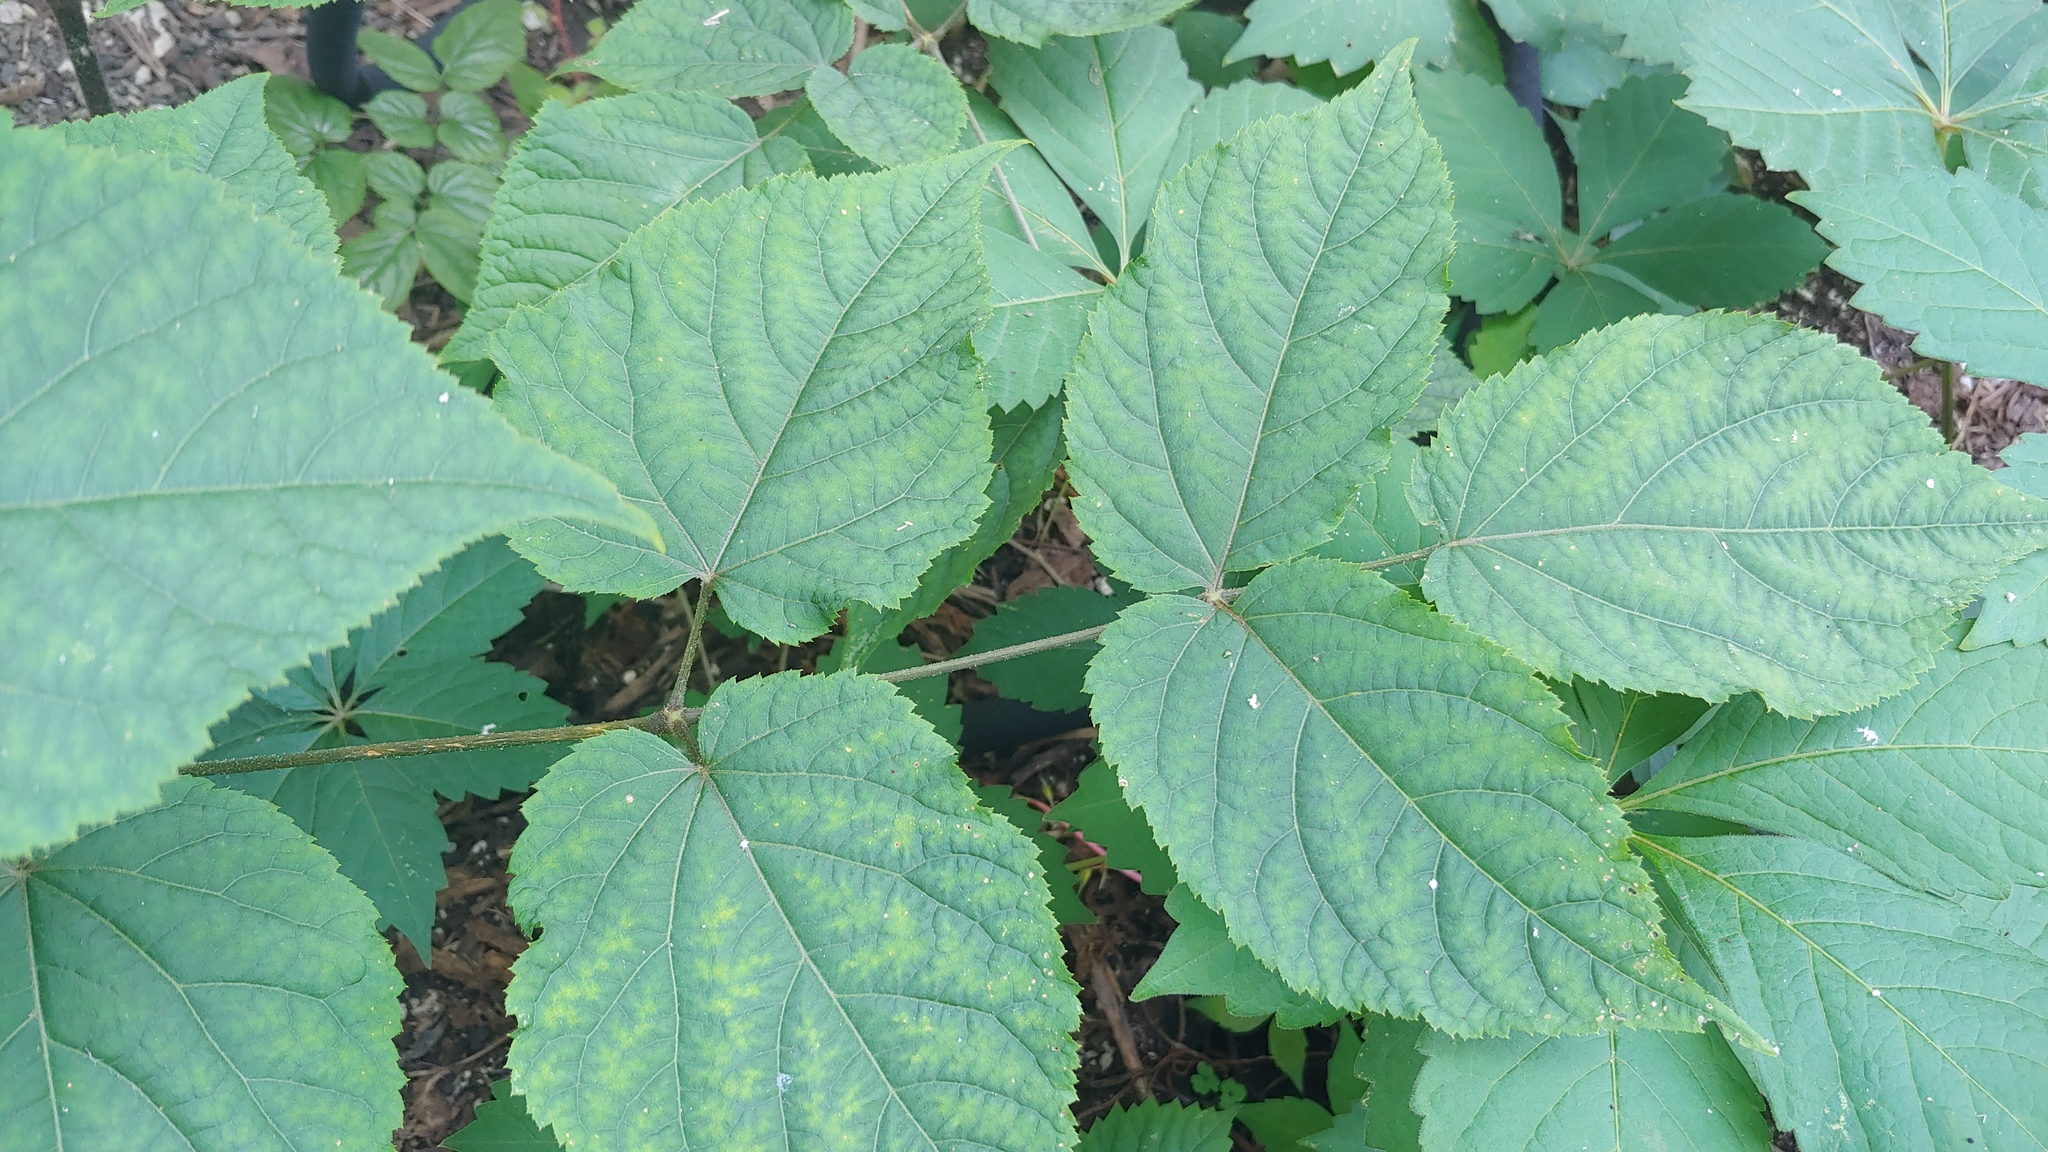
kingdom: Plantae
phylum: Tracheophyta
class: Magnoliopsida
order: Apiales
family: Araliaceae
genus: Aralia
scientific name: Aralia racemosa
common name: American-spikenard
